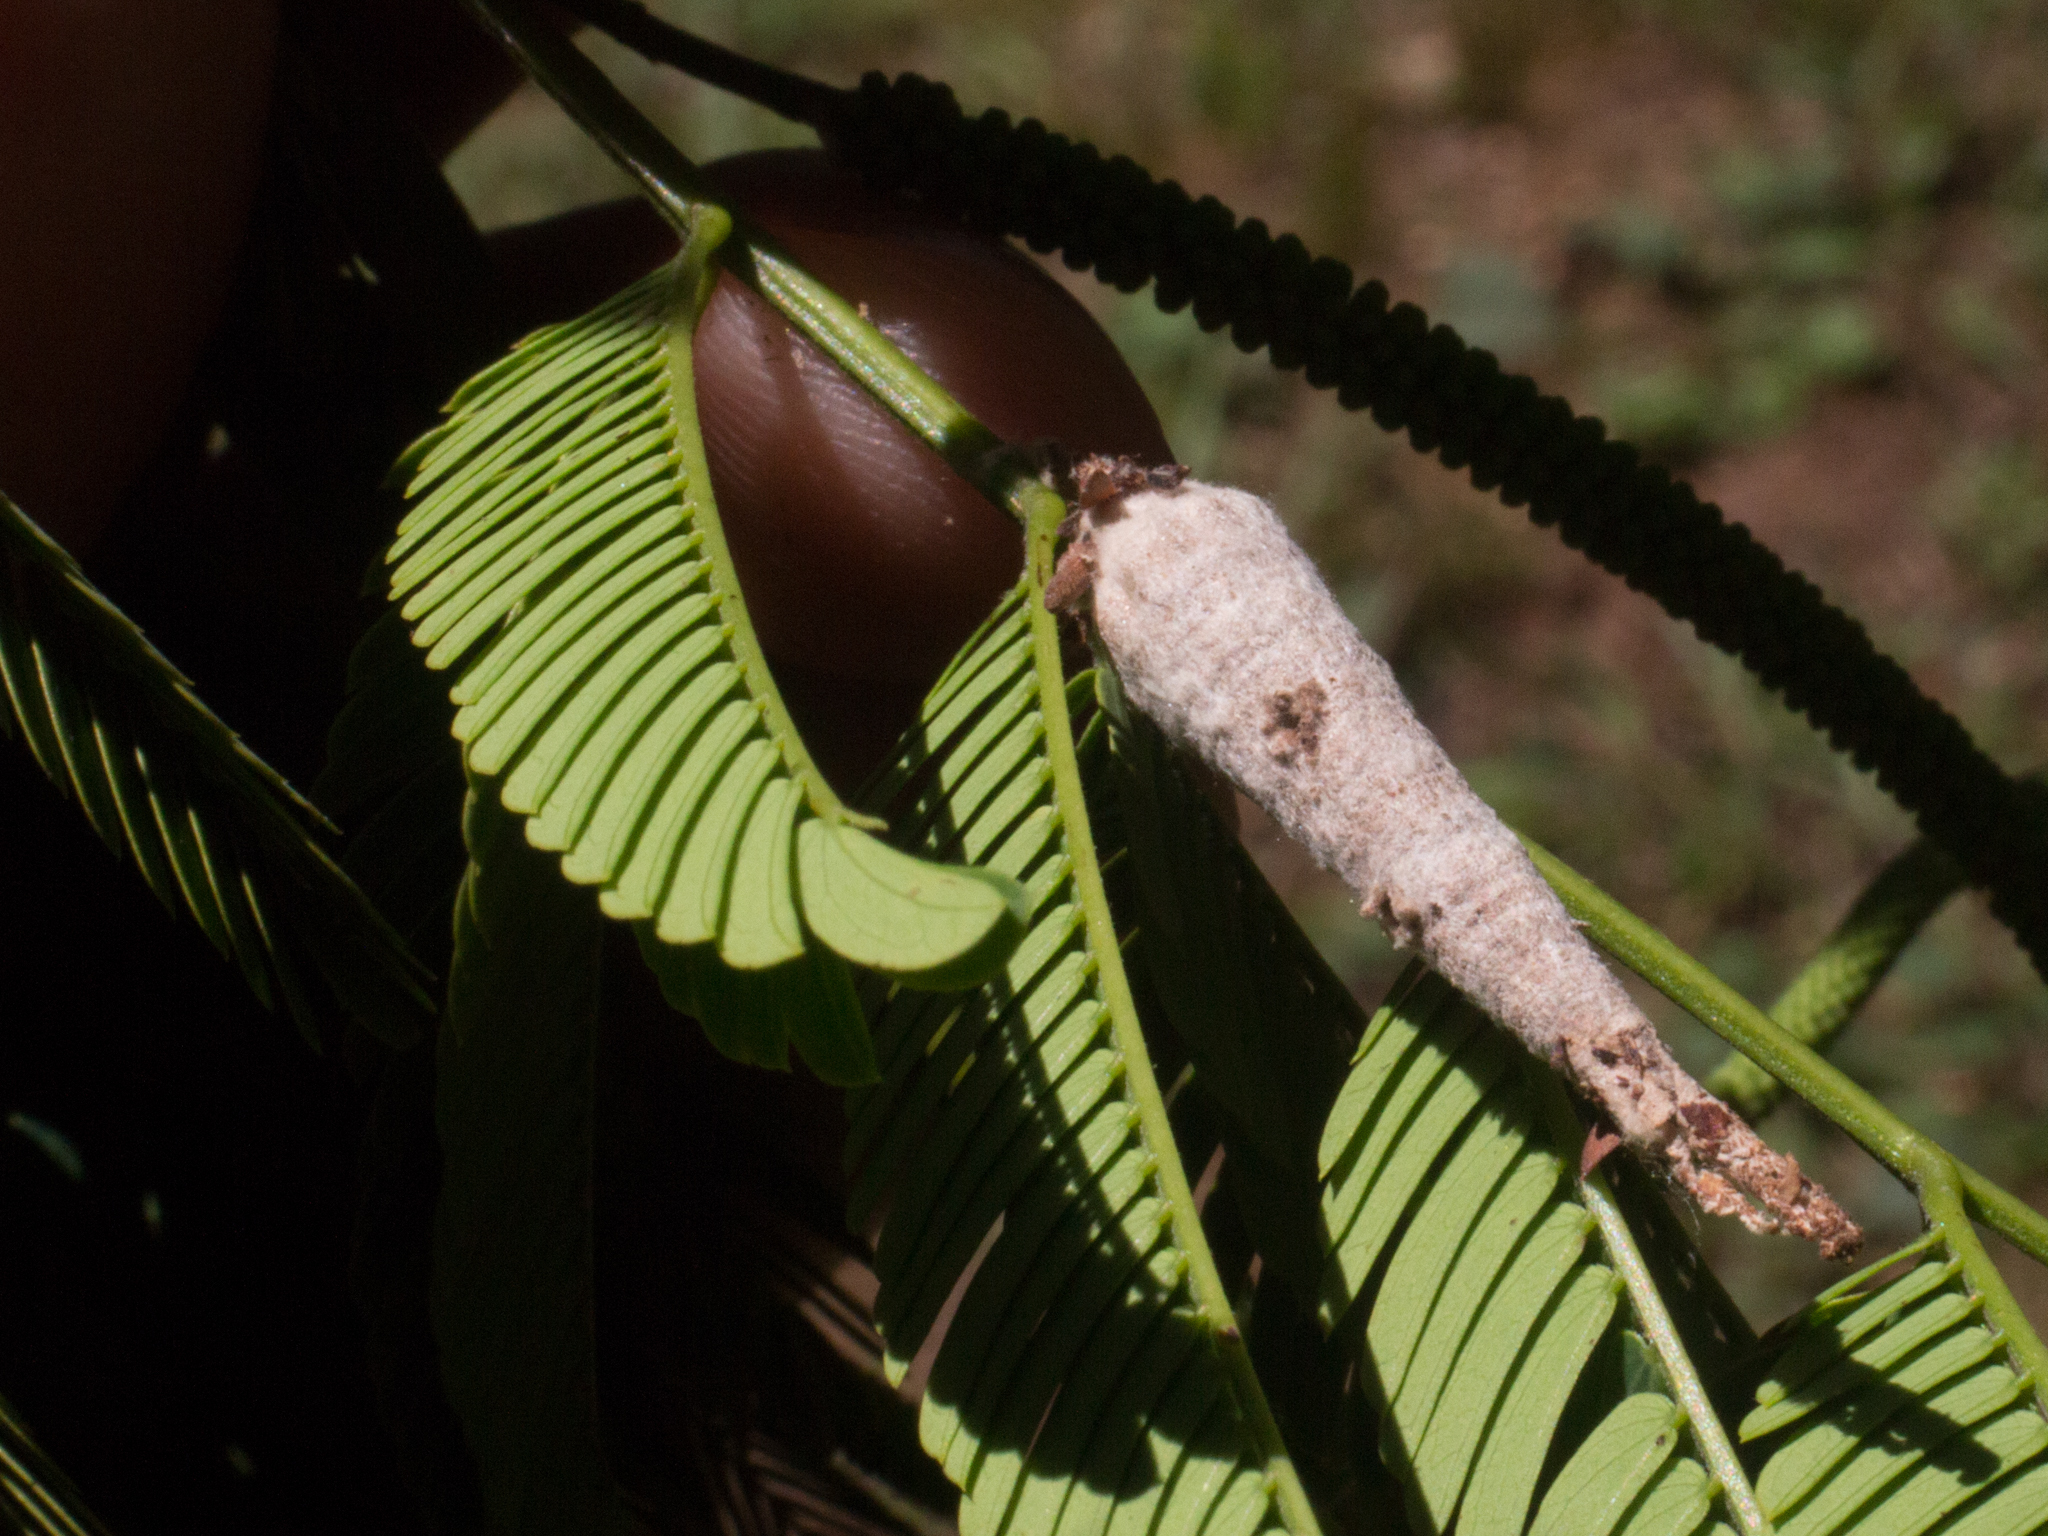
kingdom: Animalia
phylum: Arthropoda
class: Insecta
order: Lepidoptera
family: Psychidae
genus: Oiketicus
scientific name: Oiketicus geyeri
